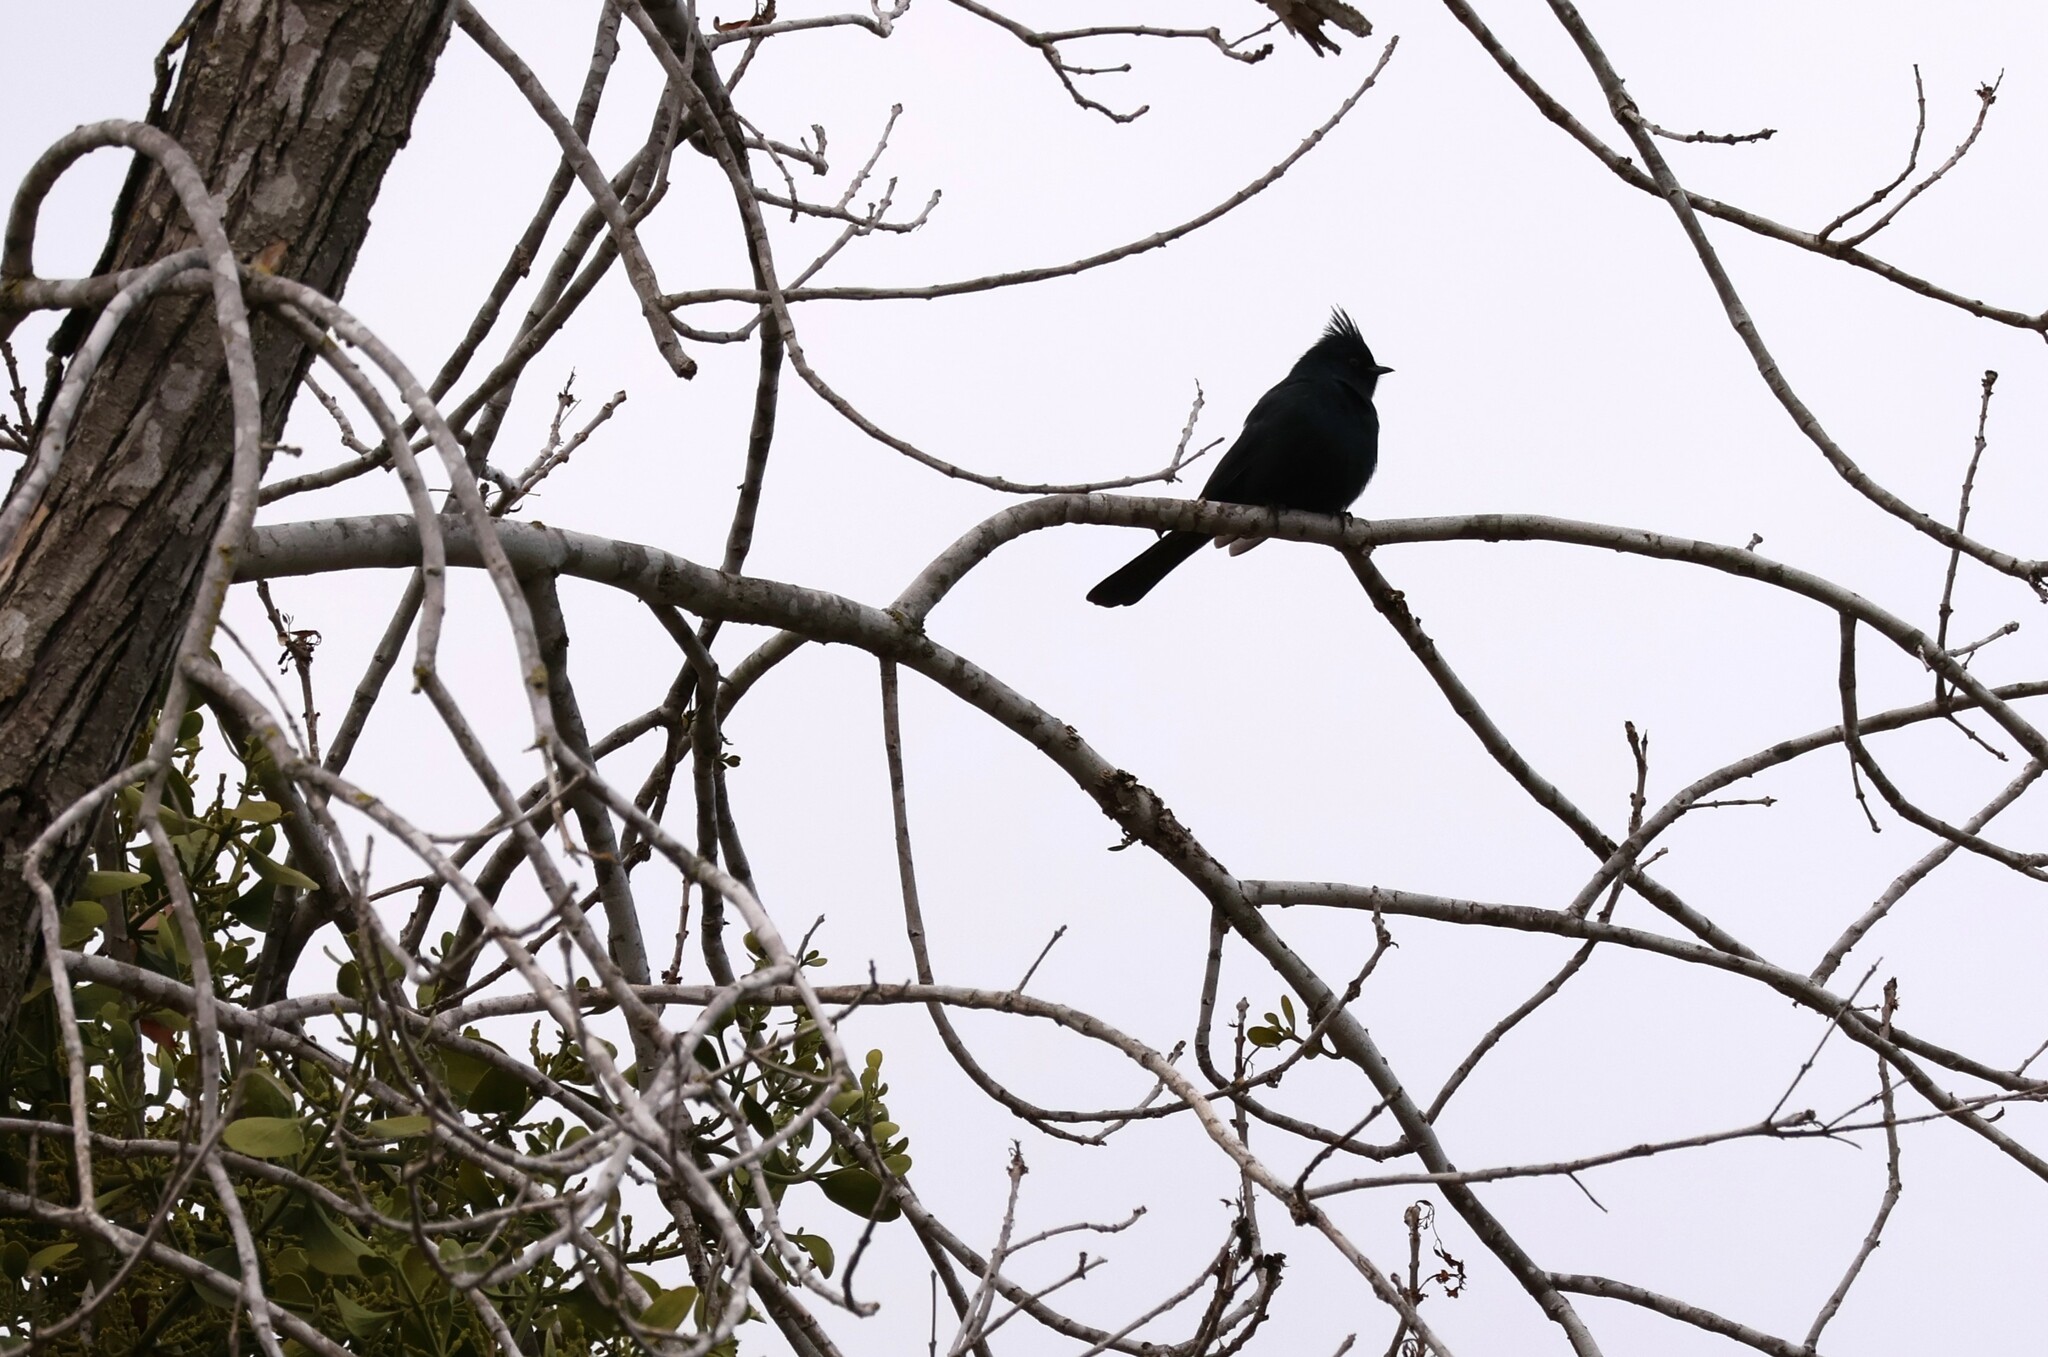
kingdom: Animalia
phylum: Chordata
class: Aves
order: Passeriformes
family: Ptilogonatidae
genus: Phainopepla
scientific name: Phainopepla nitens
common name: Phainopepla
